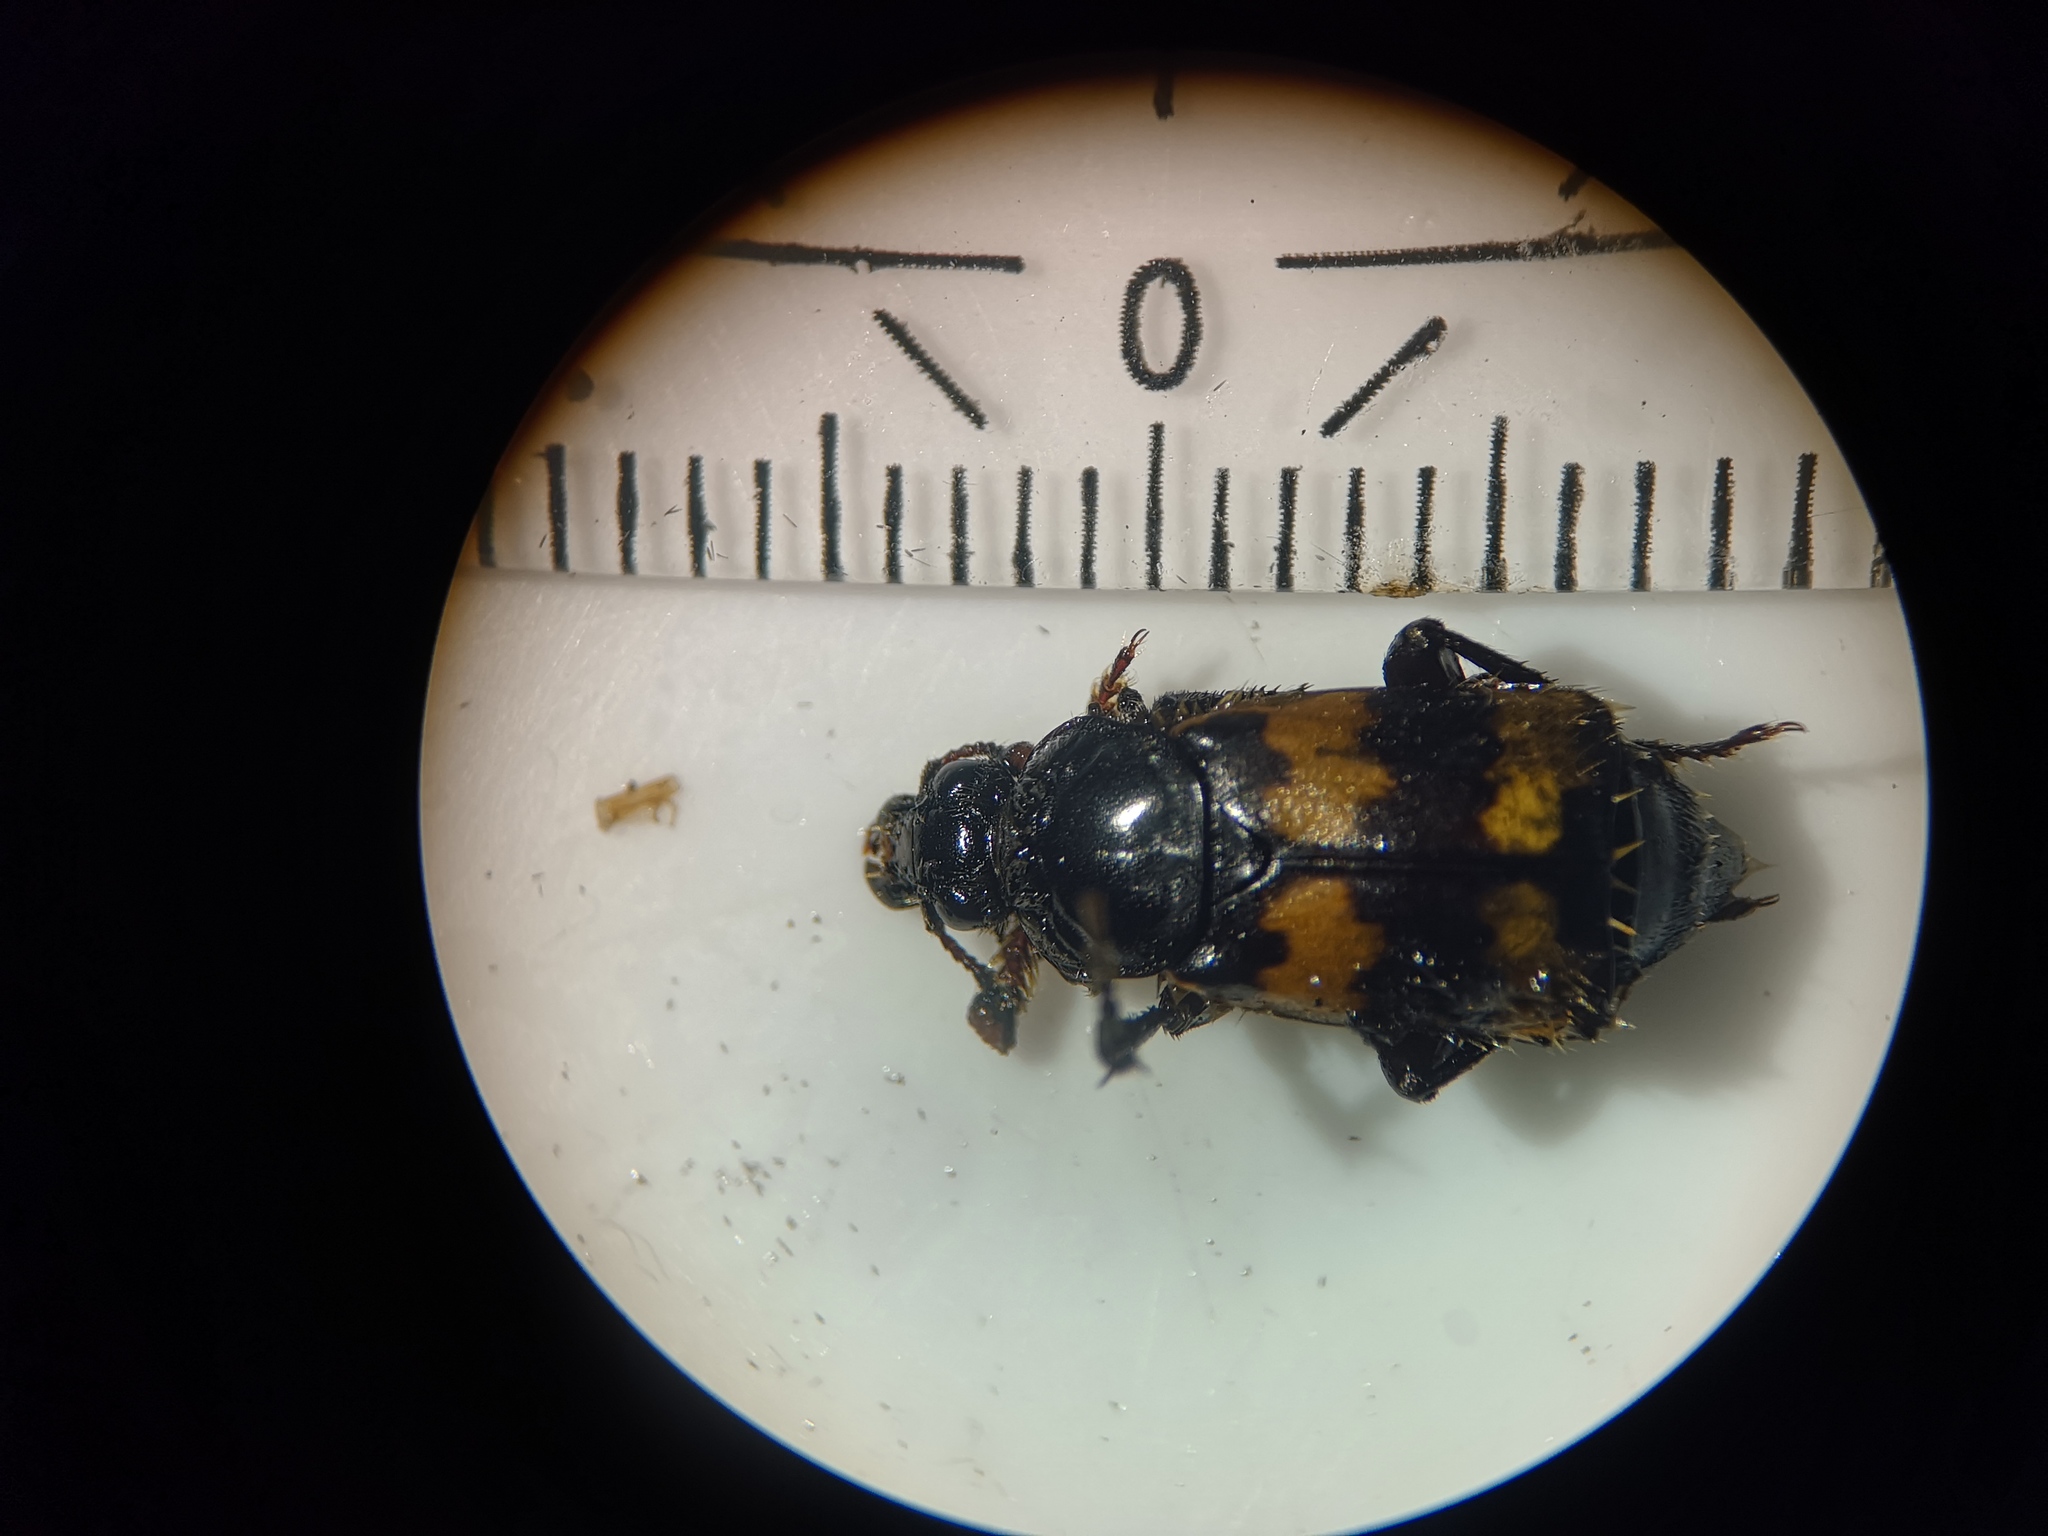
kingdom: Animalia
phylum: Arthropoda
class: Insecta
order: Coleoptera
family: Staphylinidae
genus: Nicrophorus
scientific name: Nicrophorus vespillo
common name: Common burying beetle
